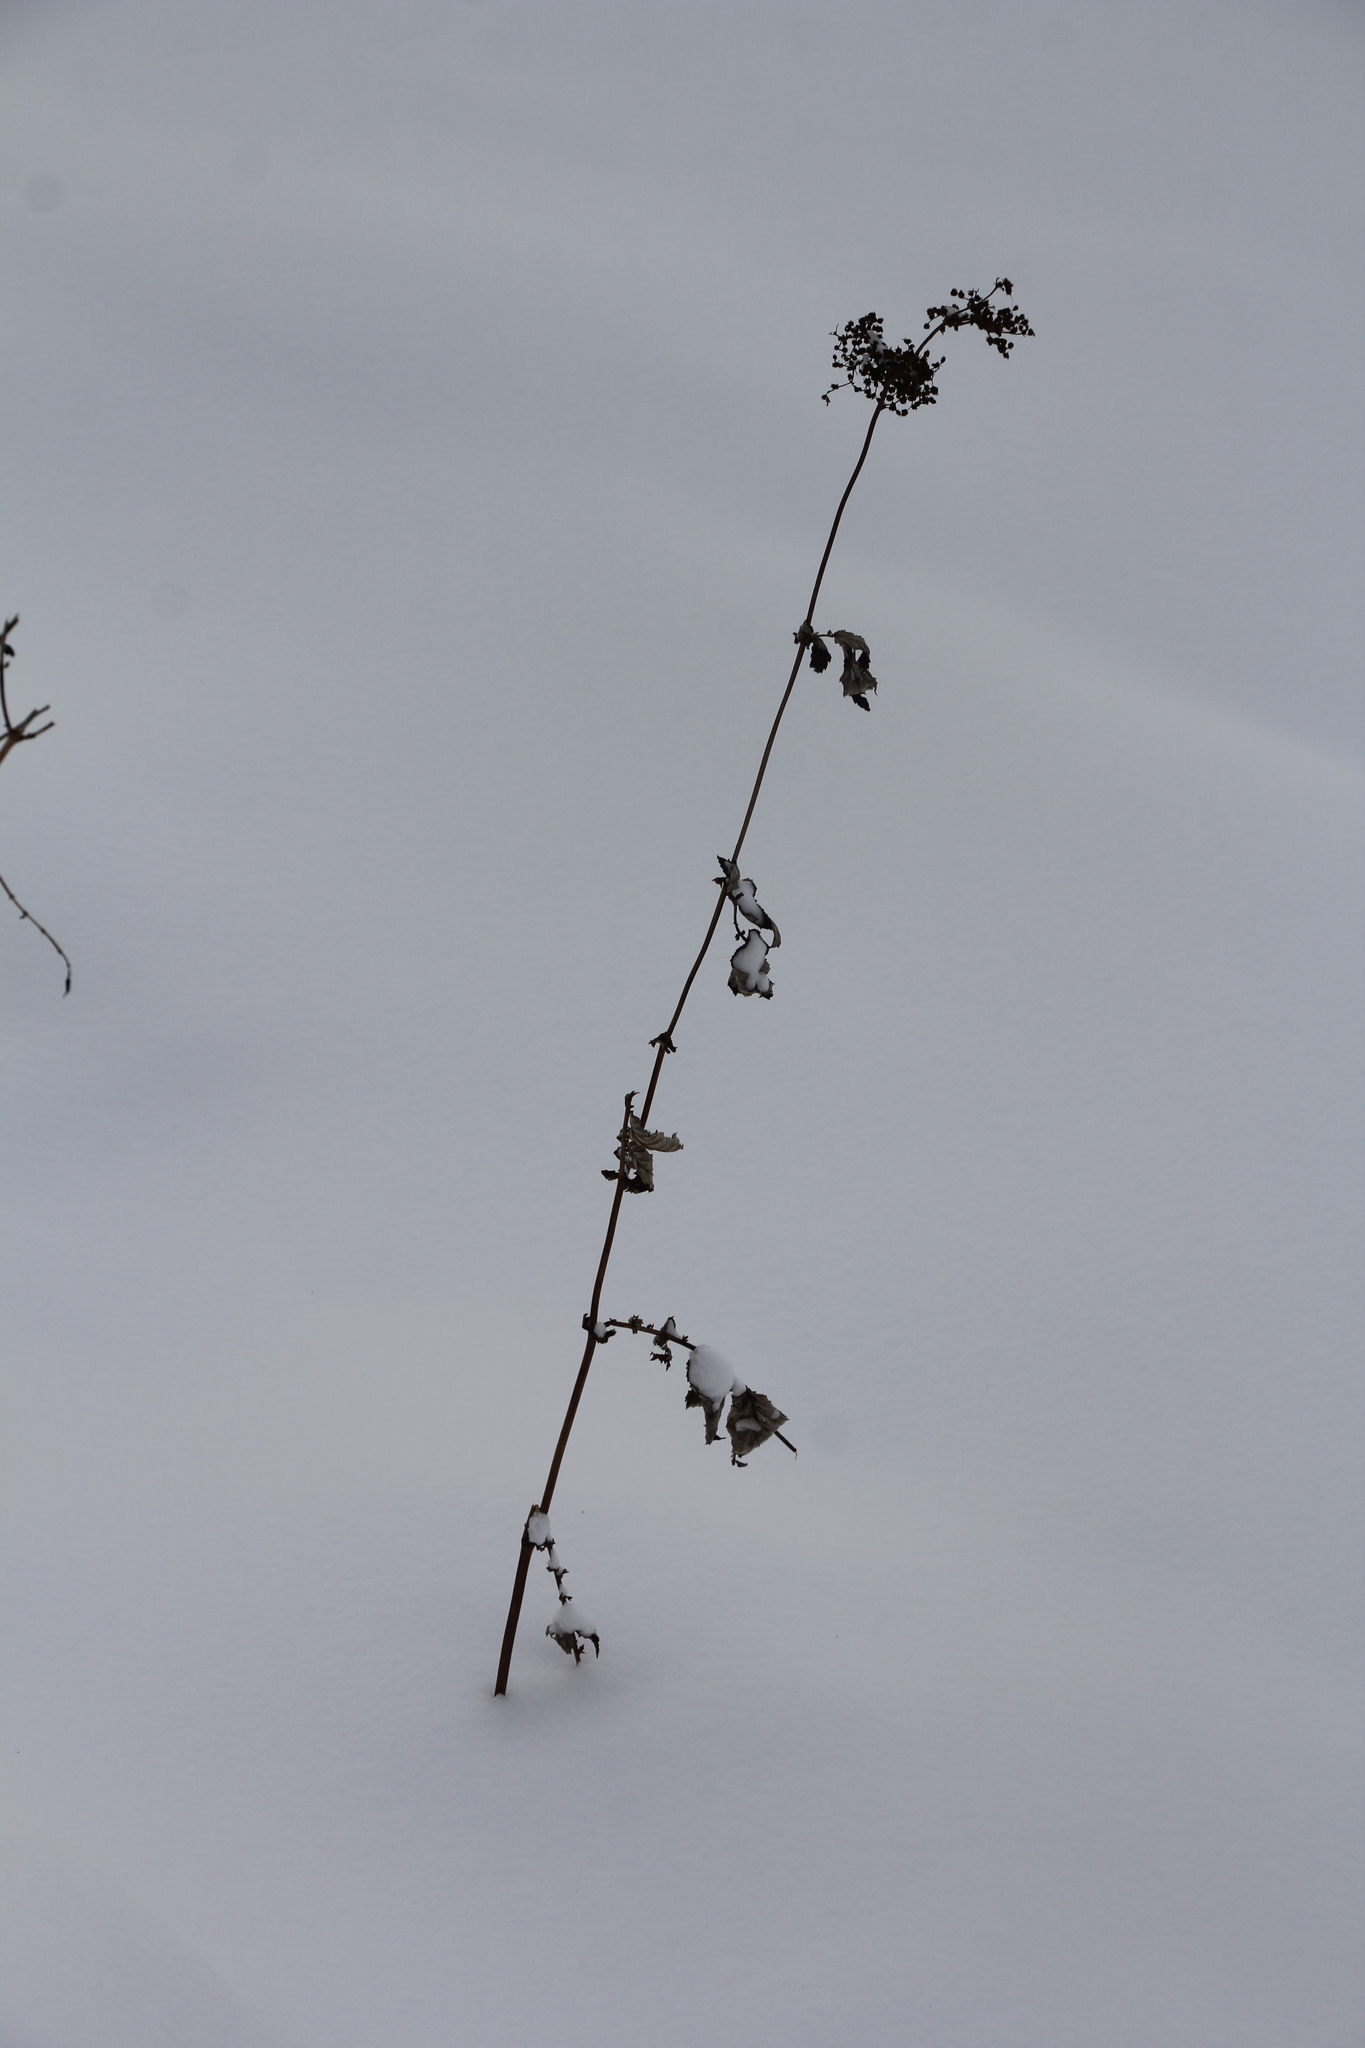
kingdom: Plantae
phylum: Tracheophyta
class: Magnoliopsida
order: Rosales
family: Rosaceae
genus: Filipendula
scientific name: Filipendula ulmaria
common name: Meadowsweet
